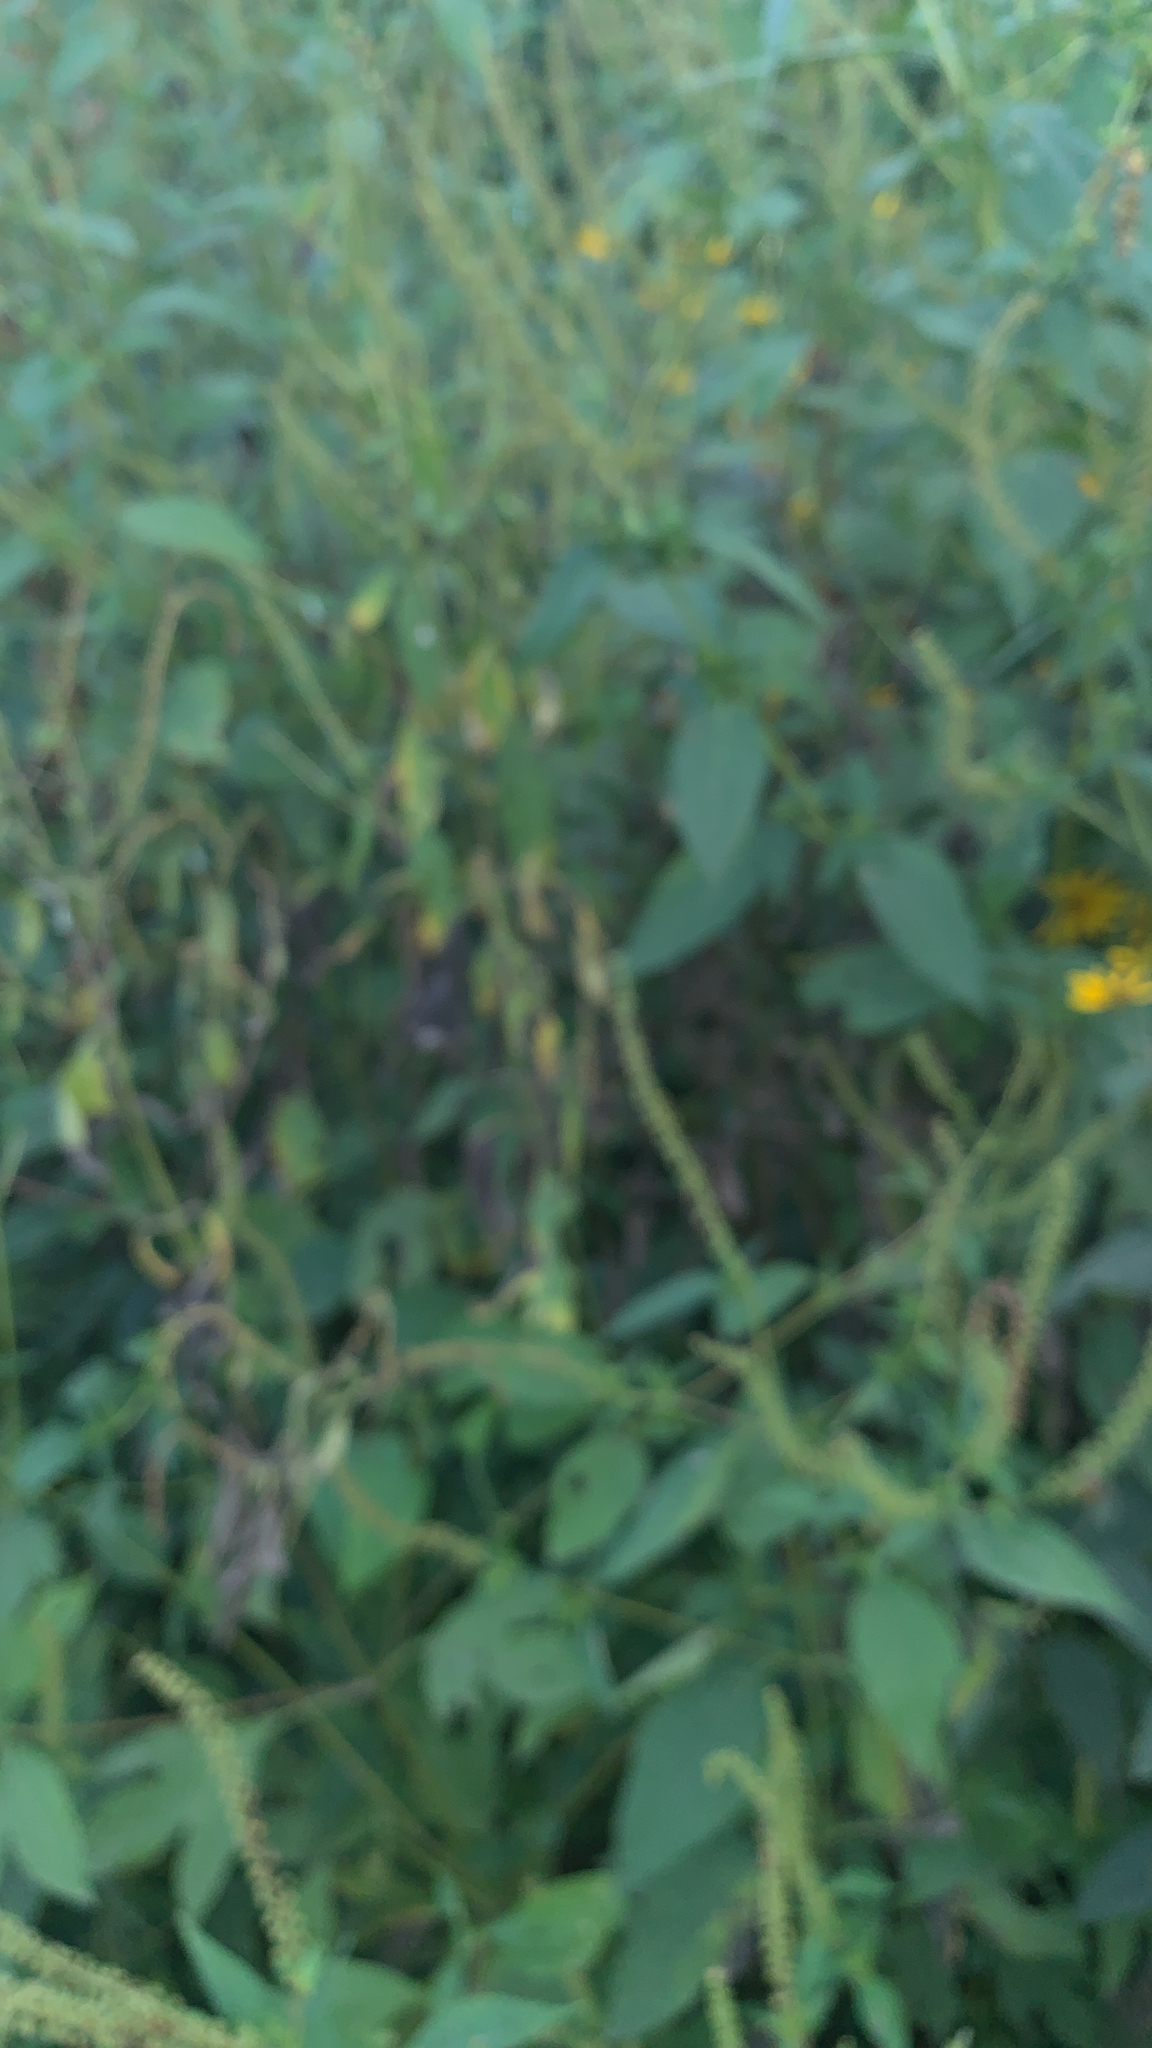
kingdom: Plantae
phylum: Tracheophyta
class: Magnoliopsida
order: Asterales
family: Asteraceae
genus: Ambrosia
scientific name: Ambrosia trifida
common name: Giant ragweed
